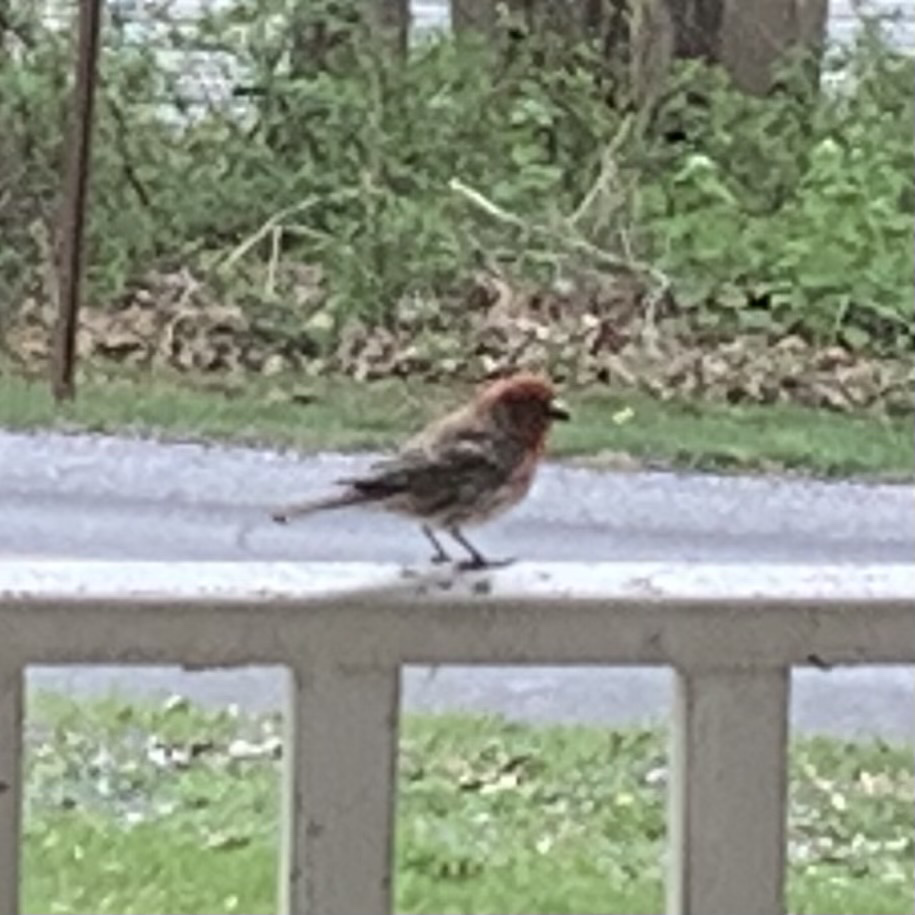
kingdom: Animalia
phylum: Chordata
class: Aves
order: Passeriformes
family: Fringillidae
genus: Haemorhous
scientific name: Haemorhous mexicanus
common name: House finch
